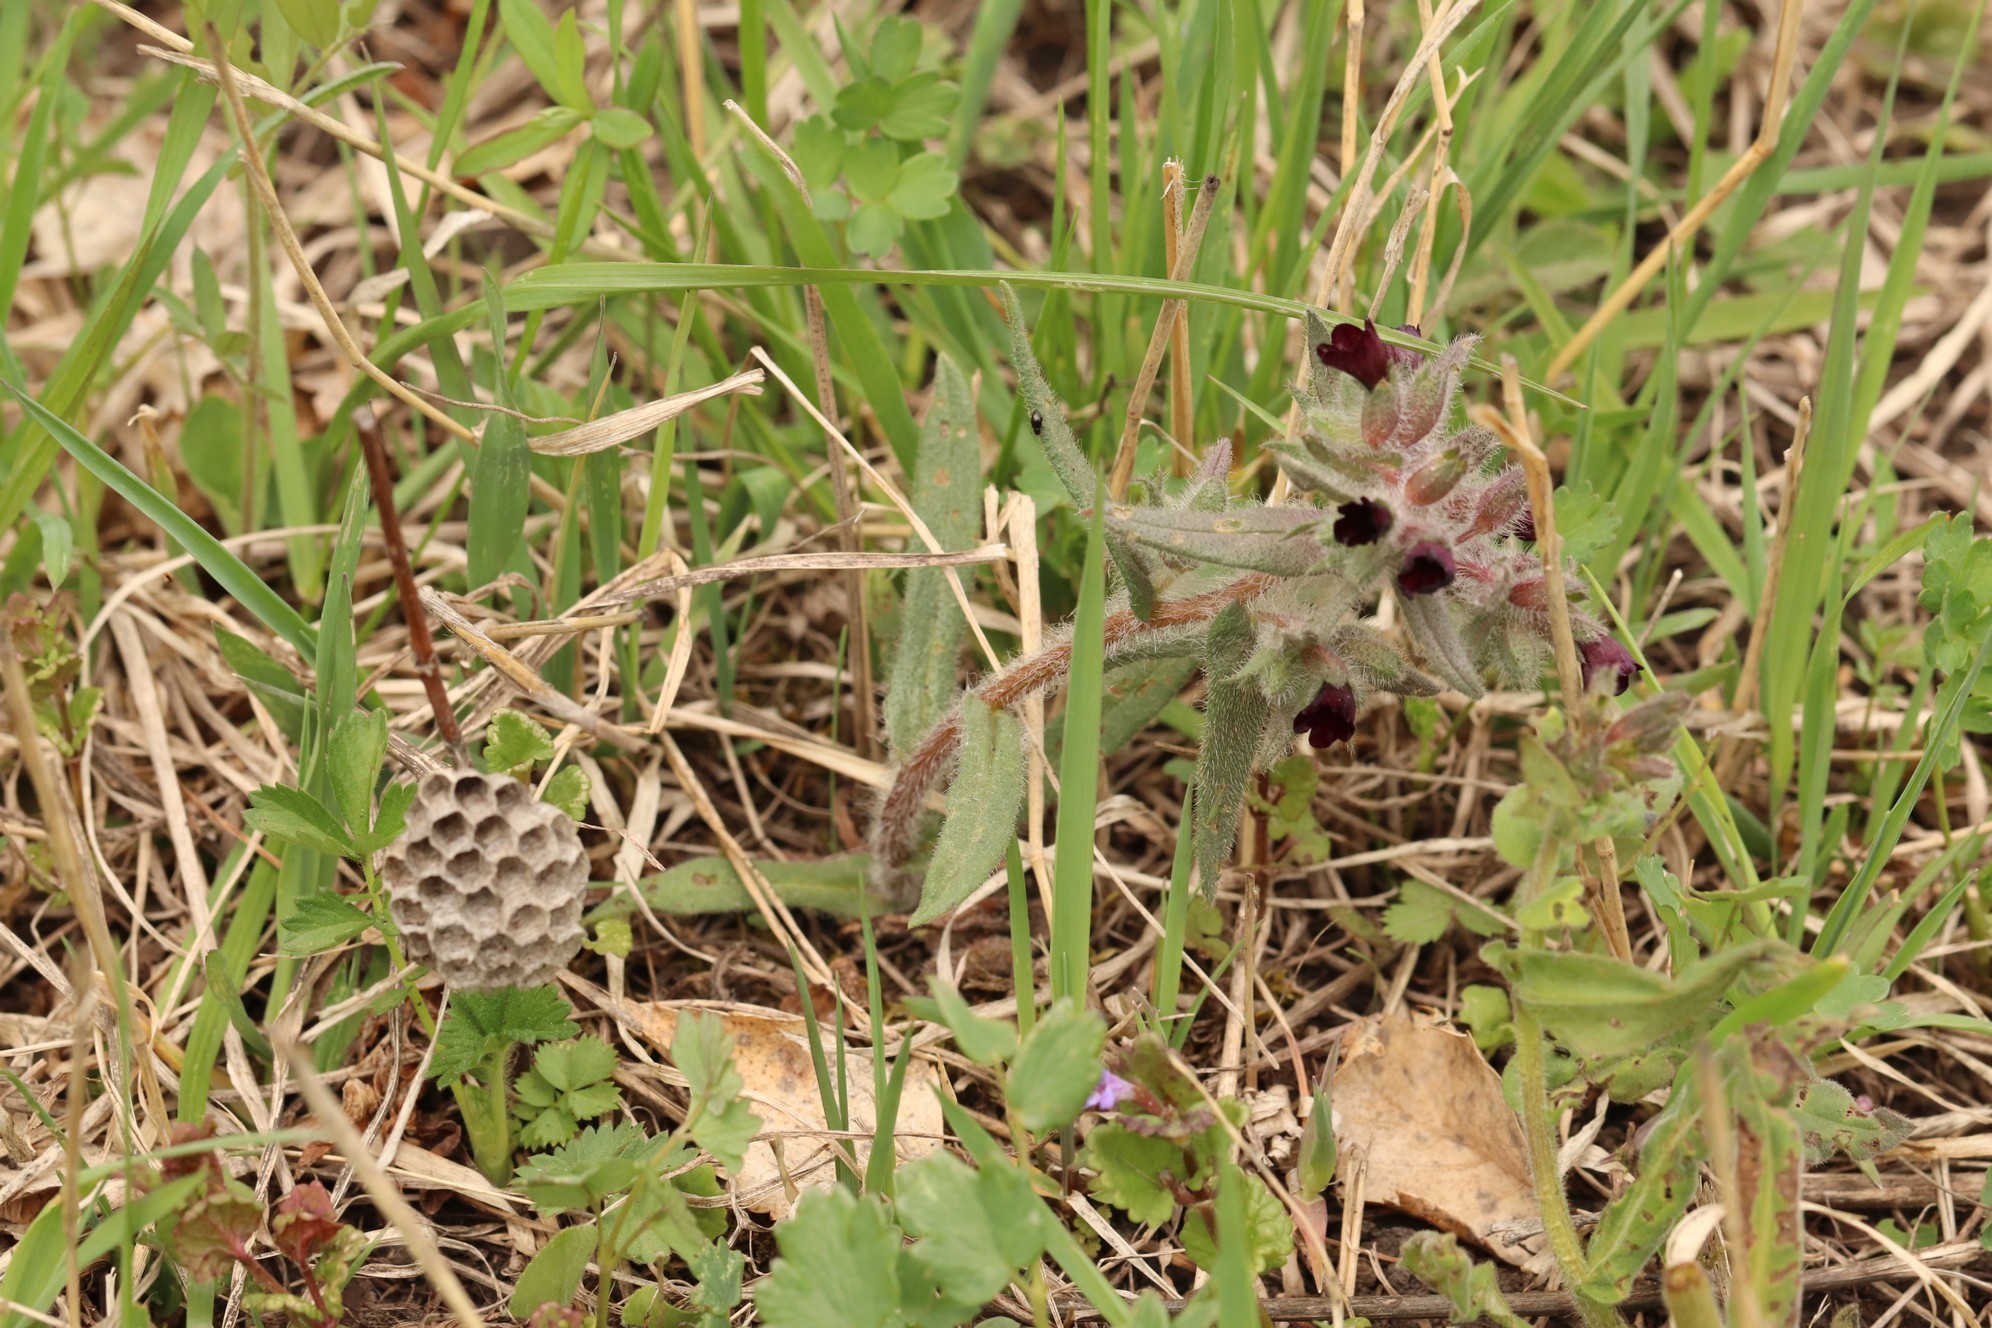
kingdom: Plantae
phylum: Tracheophyta
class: Magnoliopsida
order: Boraginales
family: Boraginaceae
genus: Nonea
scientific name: Nonea pulla
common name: Brown nonea
